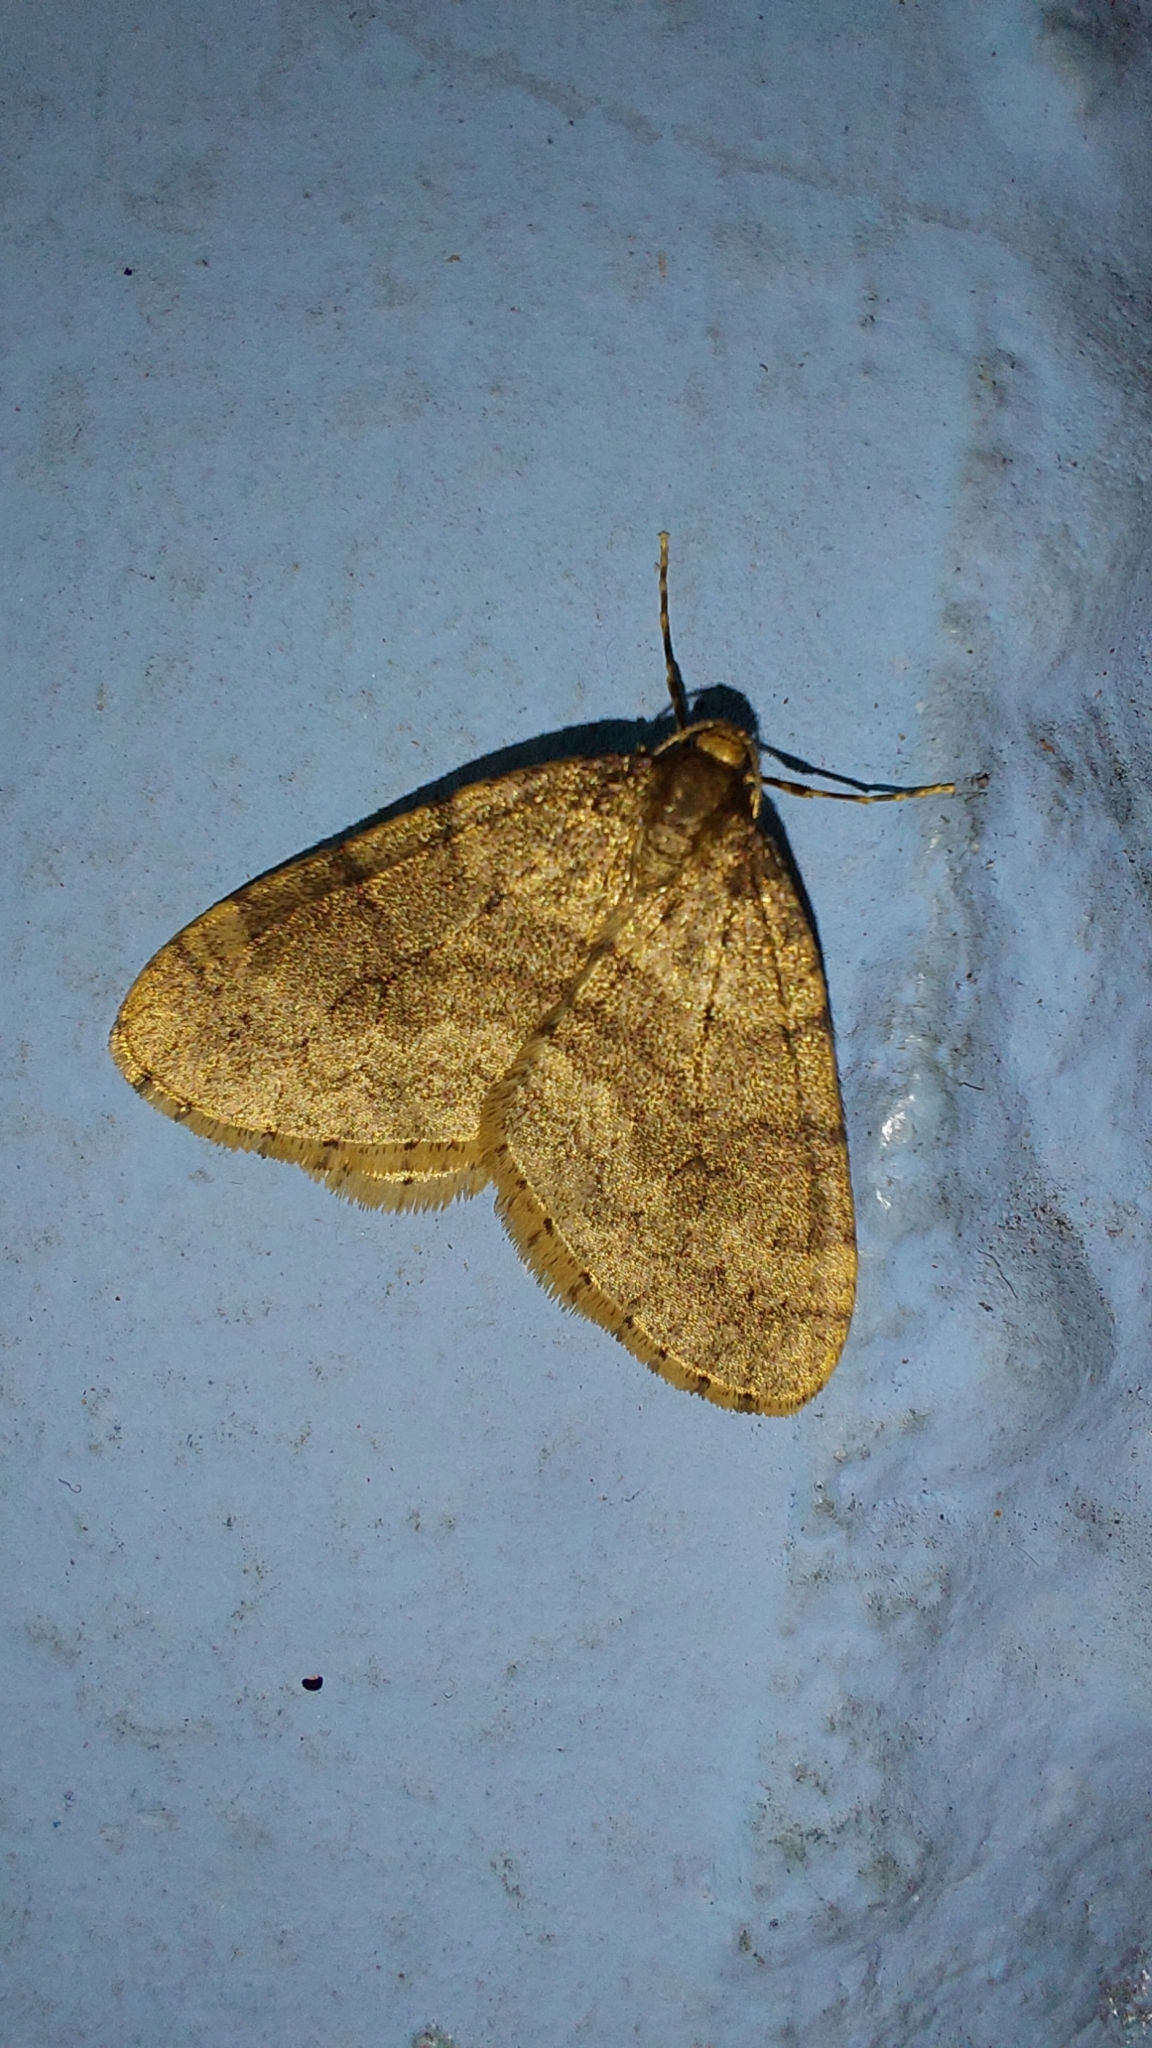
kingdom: Animalia
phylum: Arthropoda
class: Insecta
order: Lepidoptera
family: Geometridae
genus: Operophtera
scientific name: Operophtera brumata
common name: Winter moth
